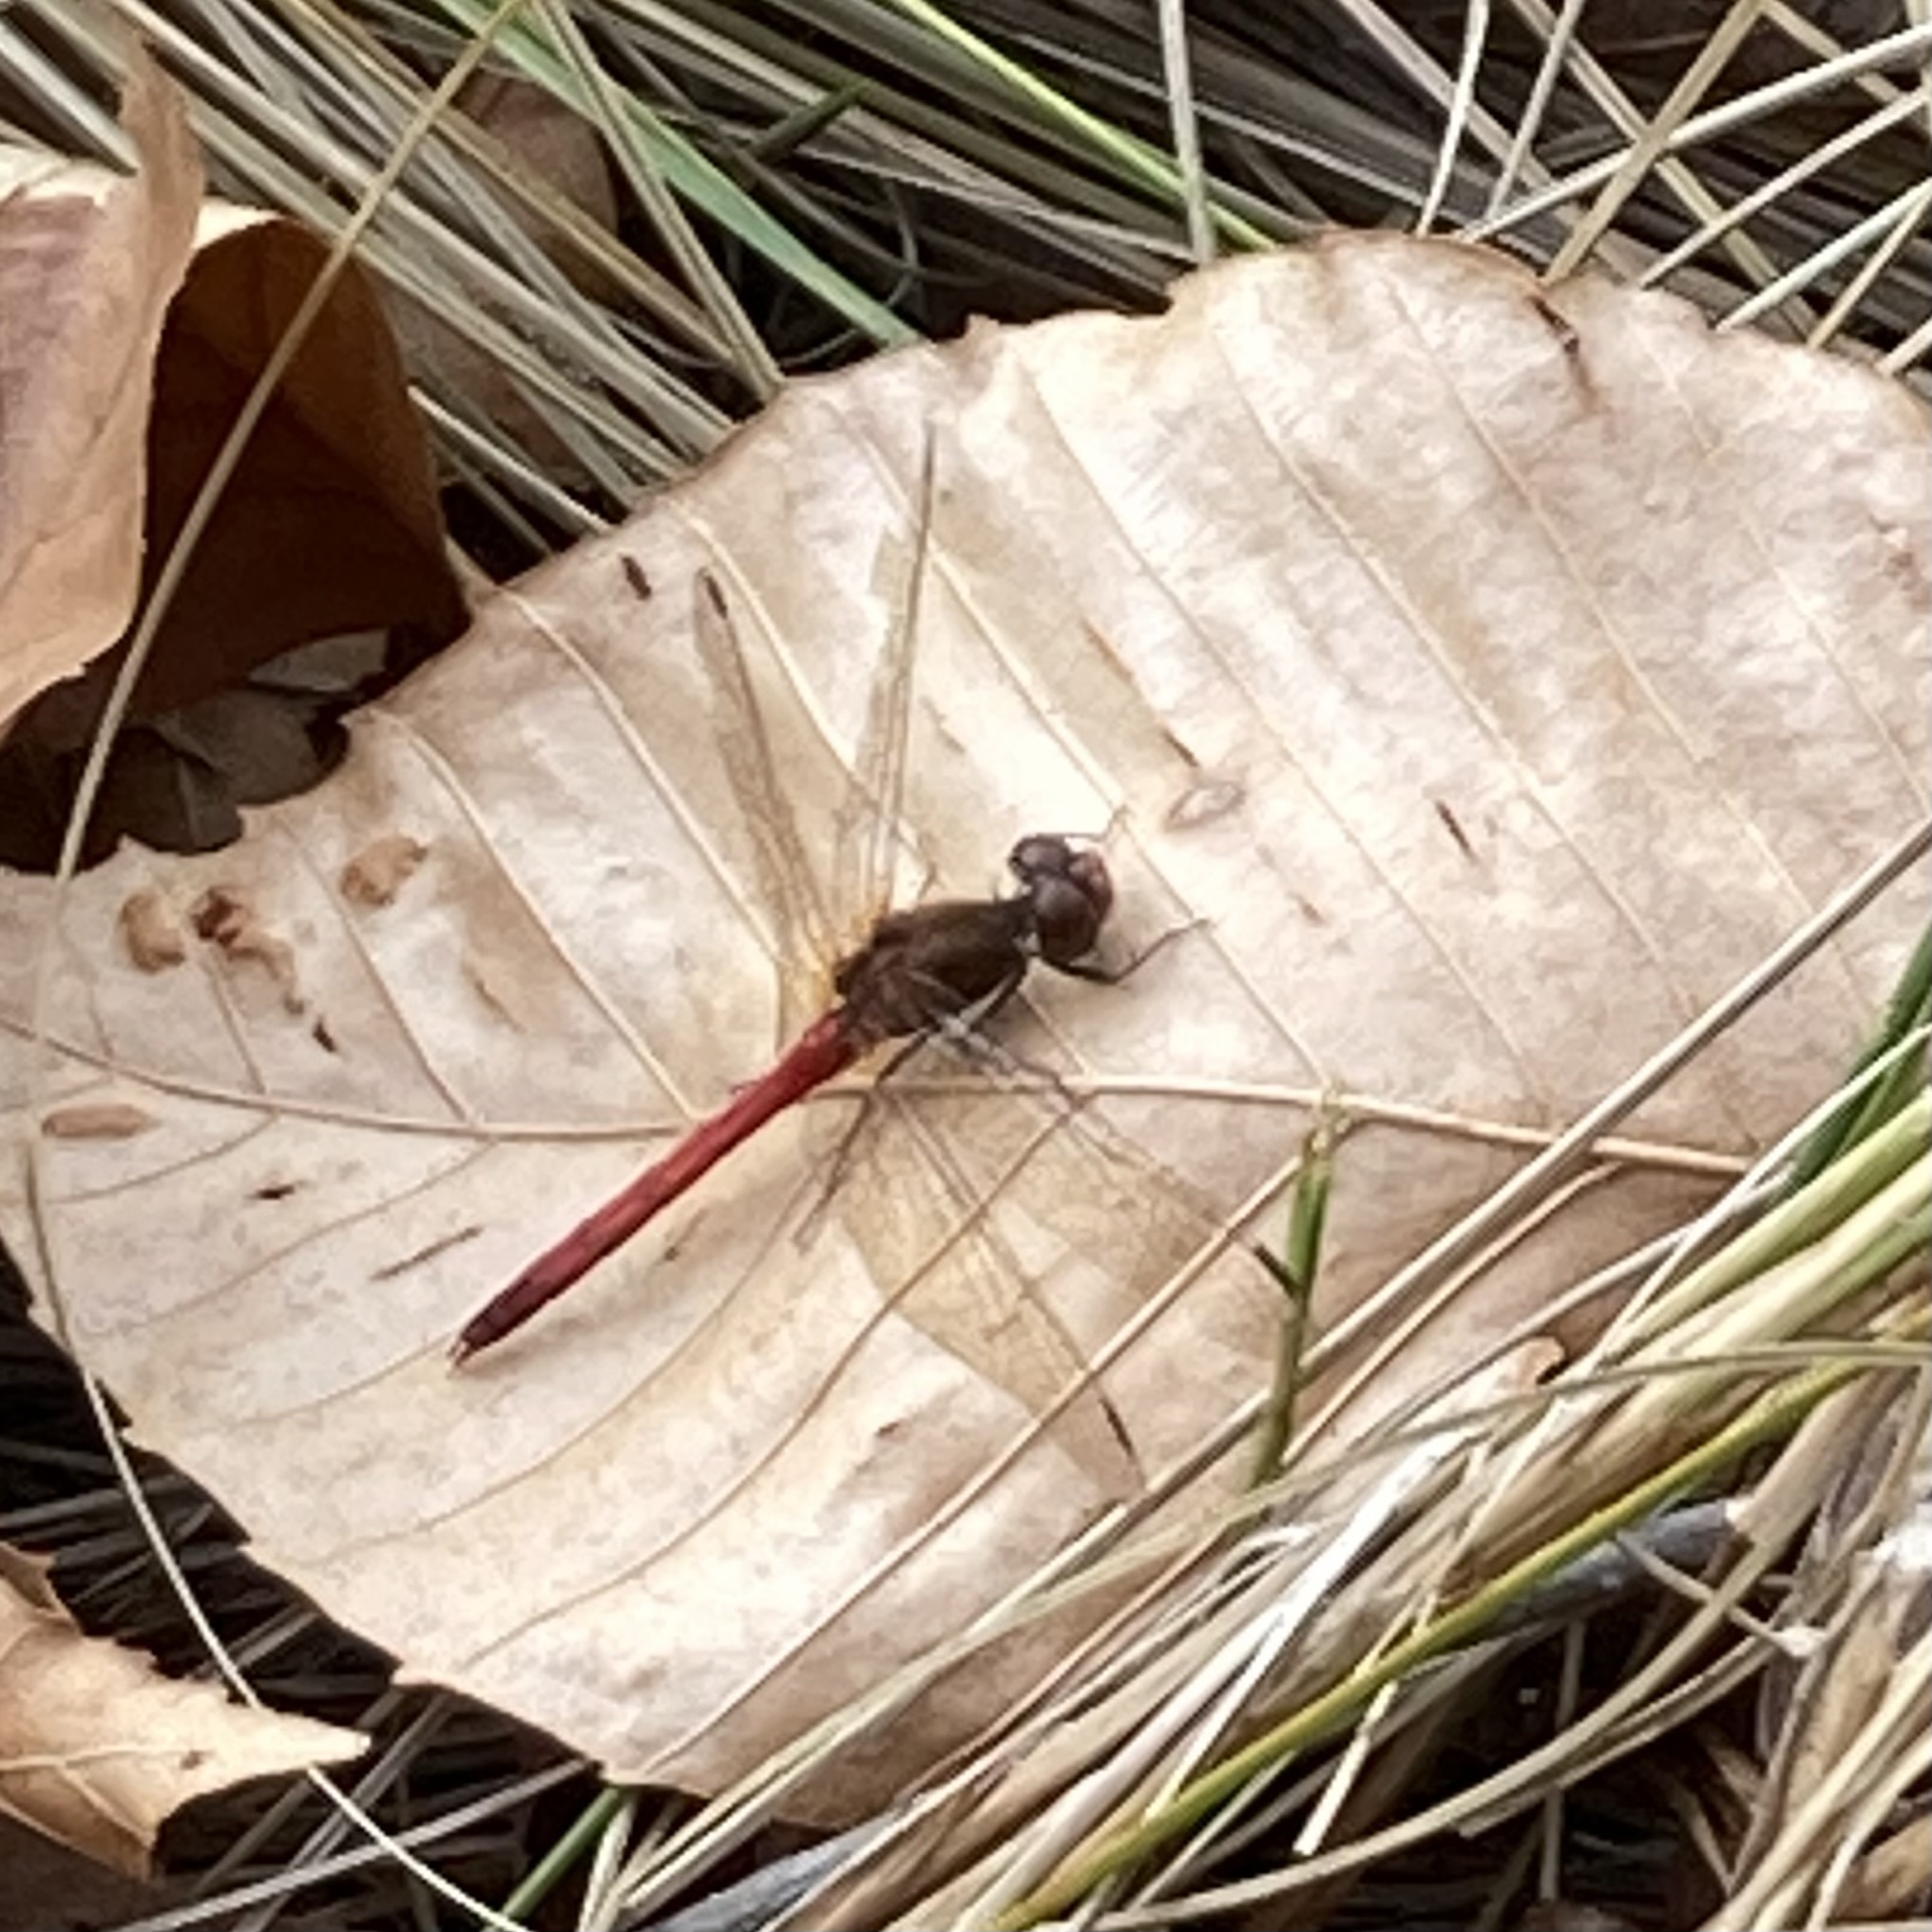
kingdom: Animalia
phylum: Arthropoda
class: Insecta
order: Odonata
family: Libellulidae
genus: Sympetrum
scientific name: Sympetrum vicinum
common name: Autumn meadowhawk
